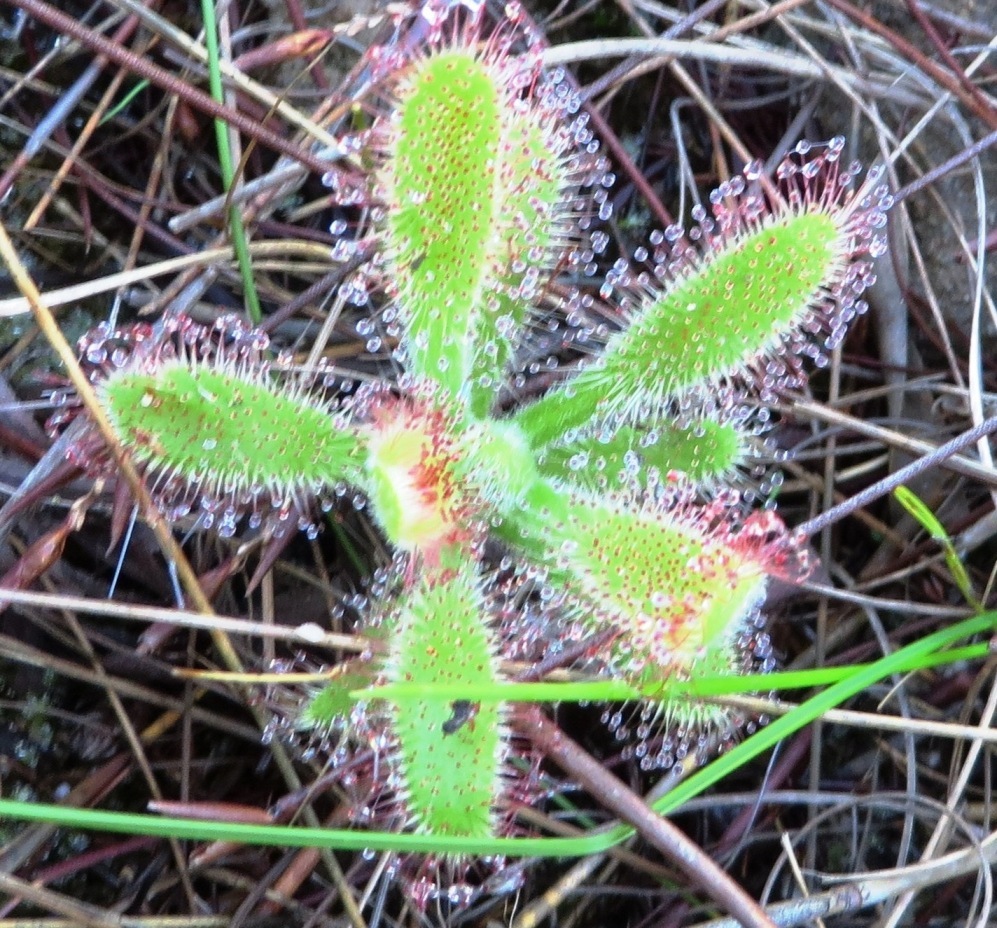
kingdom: Plantae
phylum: Tracheophyta
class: Magnoliopsida
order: Caryophyllales
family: Droseraceae
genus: Drosera
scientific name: Drosera hilaris
